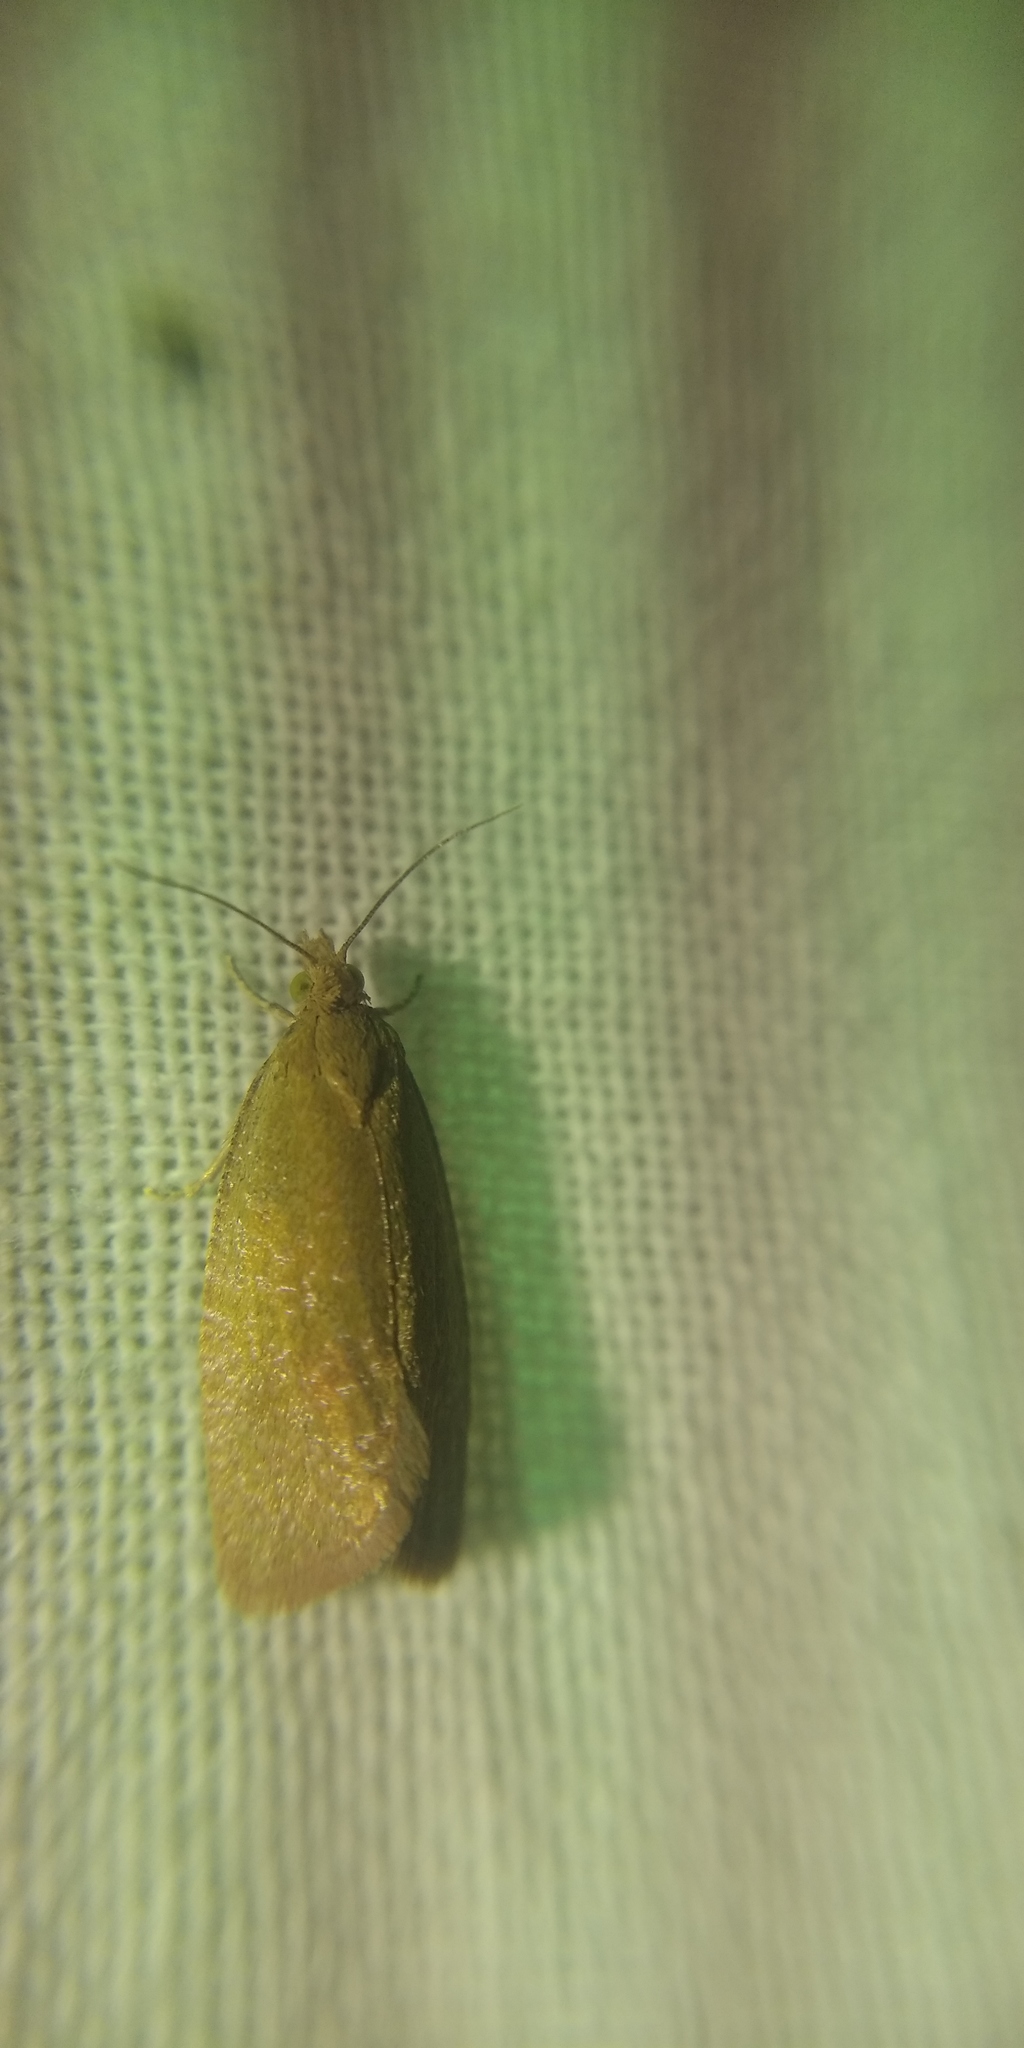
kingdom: Animalia
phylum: Arthropoda
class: Insecta
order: Lepidoptera
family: Tortricidae
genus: Celypha
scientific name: Celypha rufana
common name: Lakes marble
